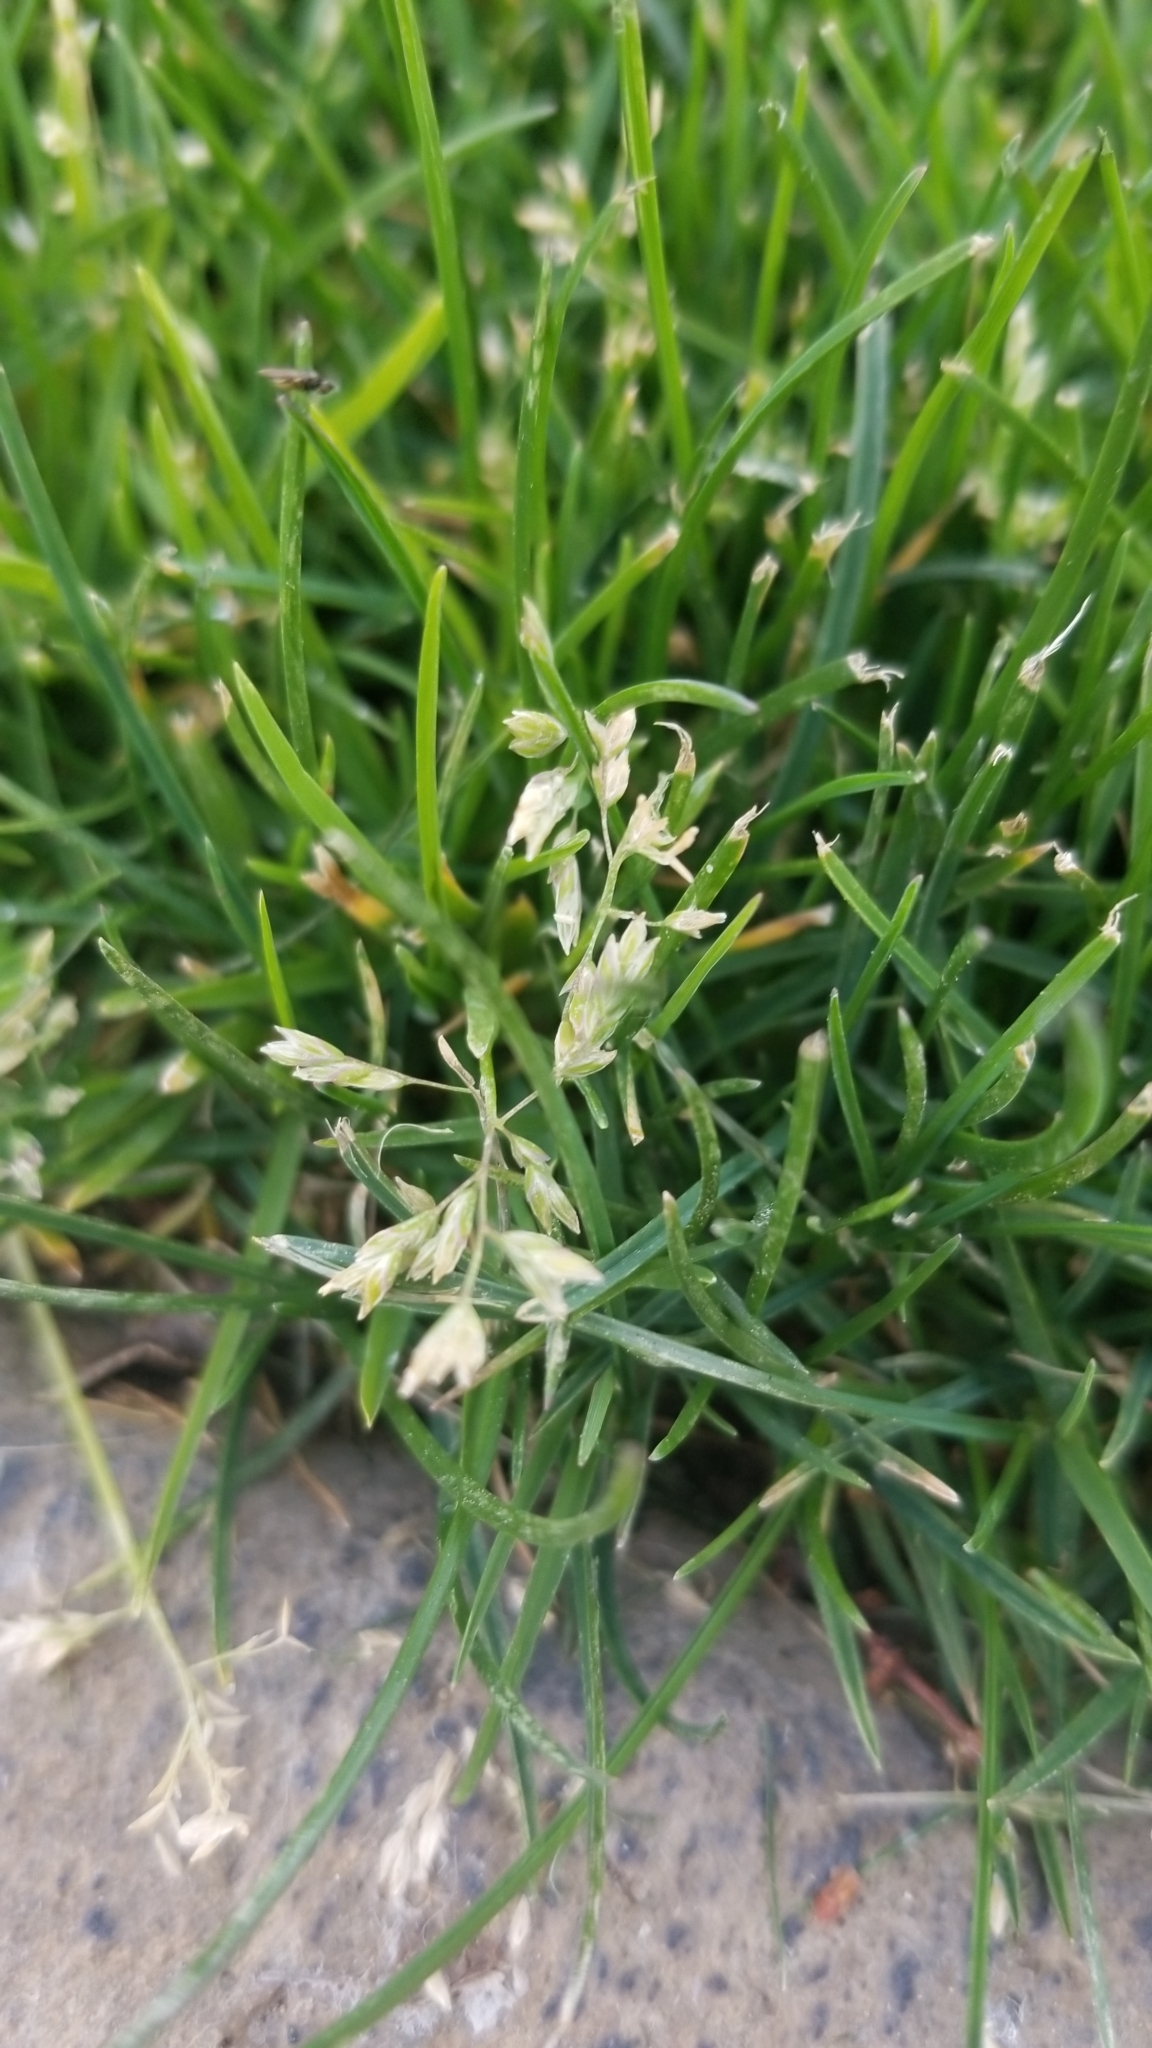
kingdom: Plantae
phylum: Tracheophyta
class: Liliopsida
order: Poales
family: Poaceae
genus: Poa
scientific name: Poa annua
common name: Annual bluegrass
